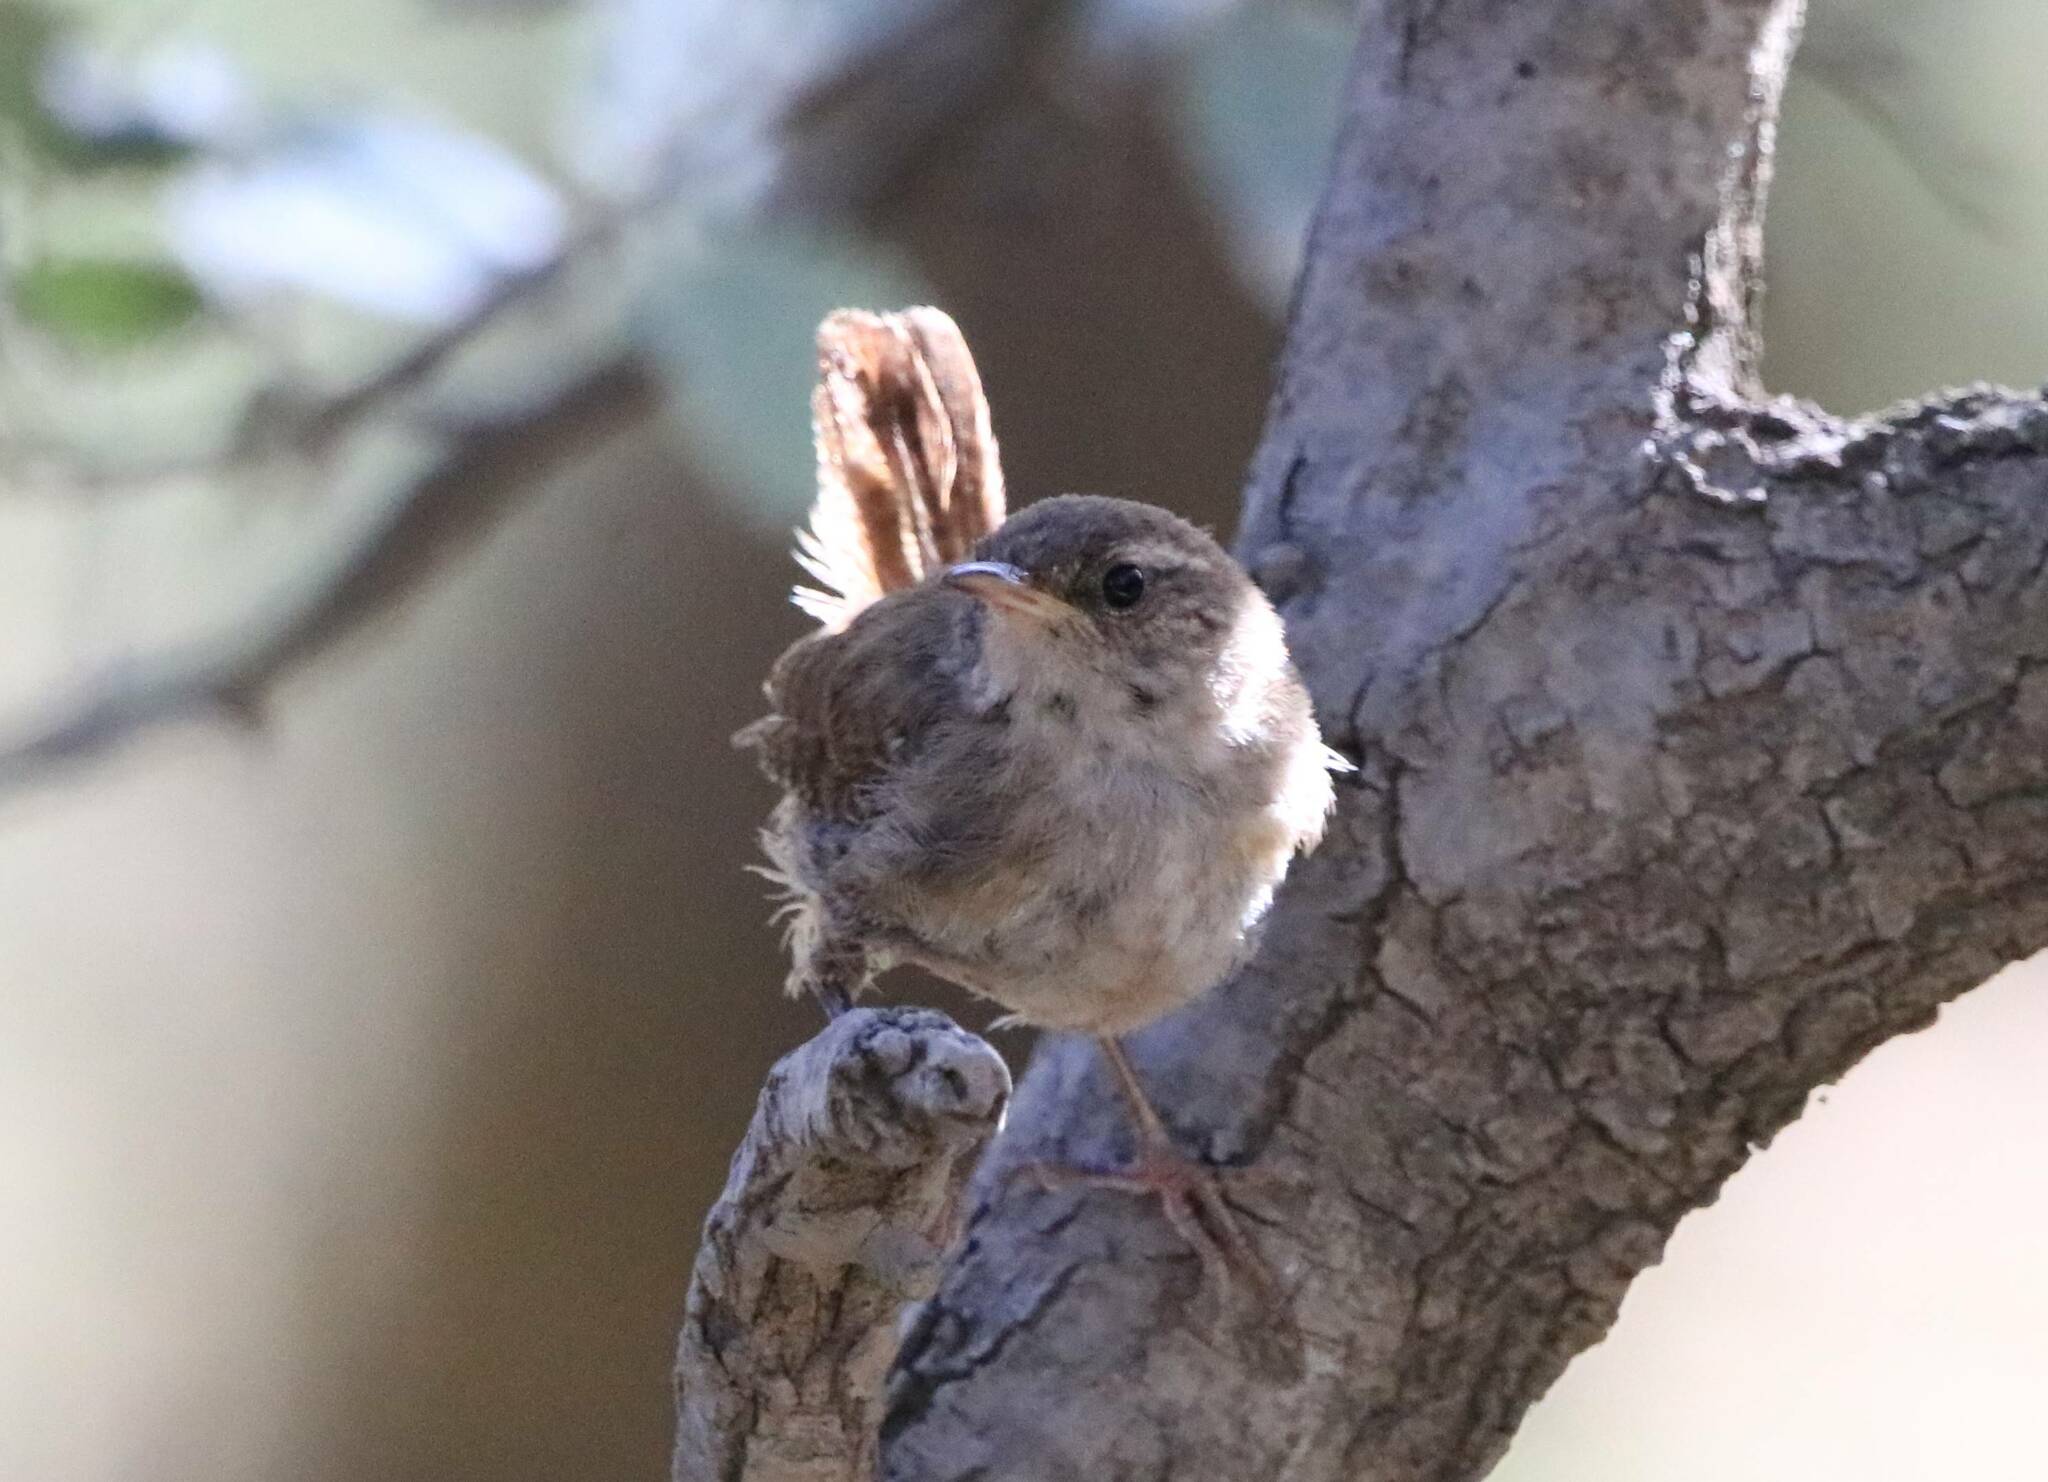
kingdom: Animalia
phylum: Chordata
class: Aves
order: Passeriformes
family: Troglodytidae
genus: Troglodytes
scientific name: Troglodytes troglodytes
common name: Eurasian wren
